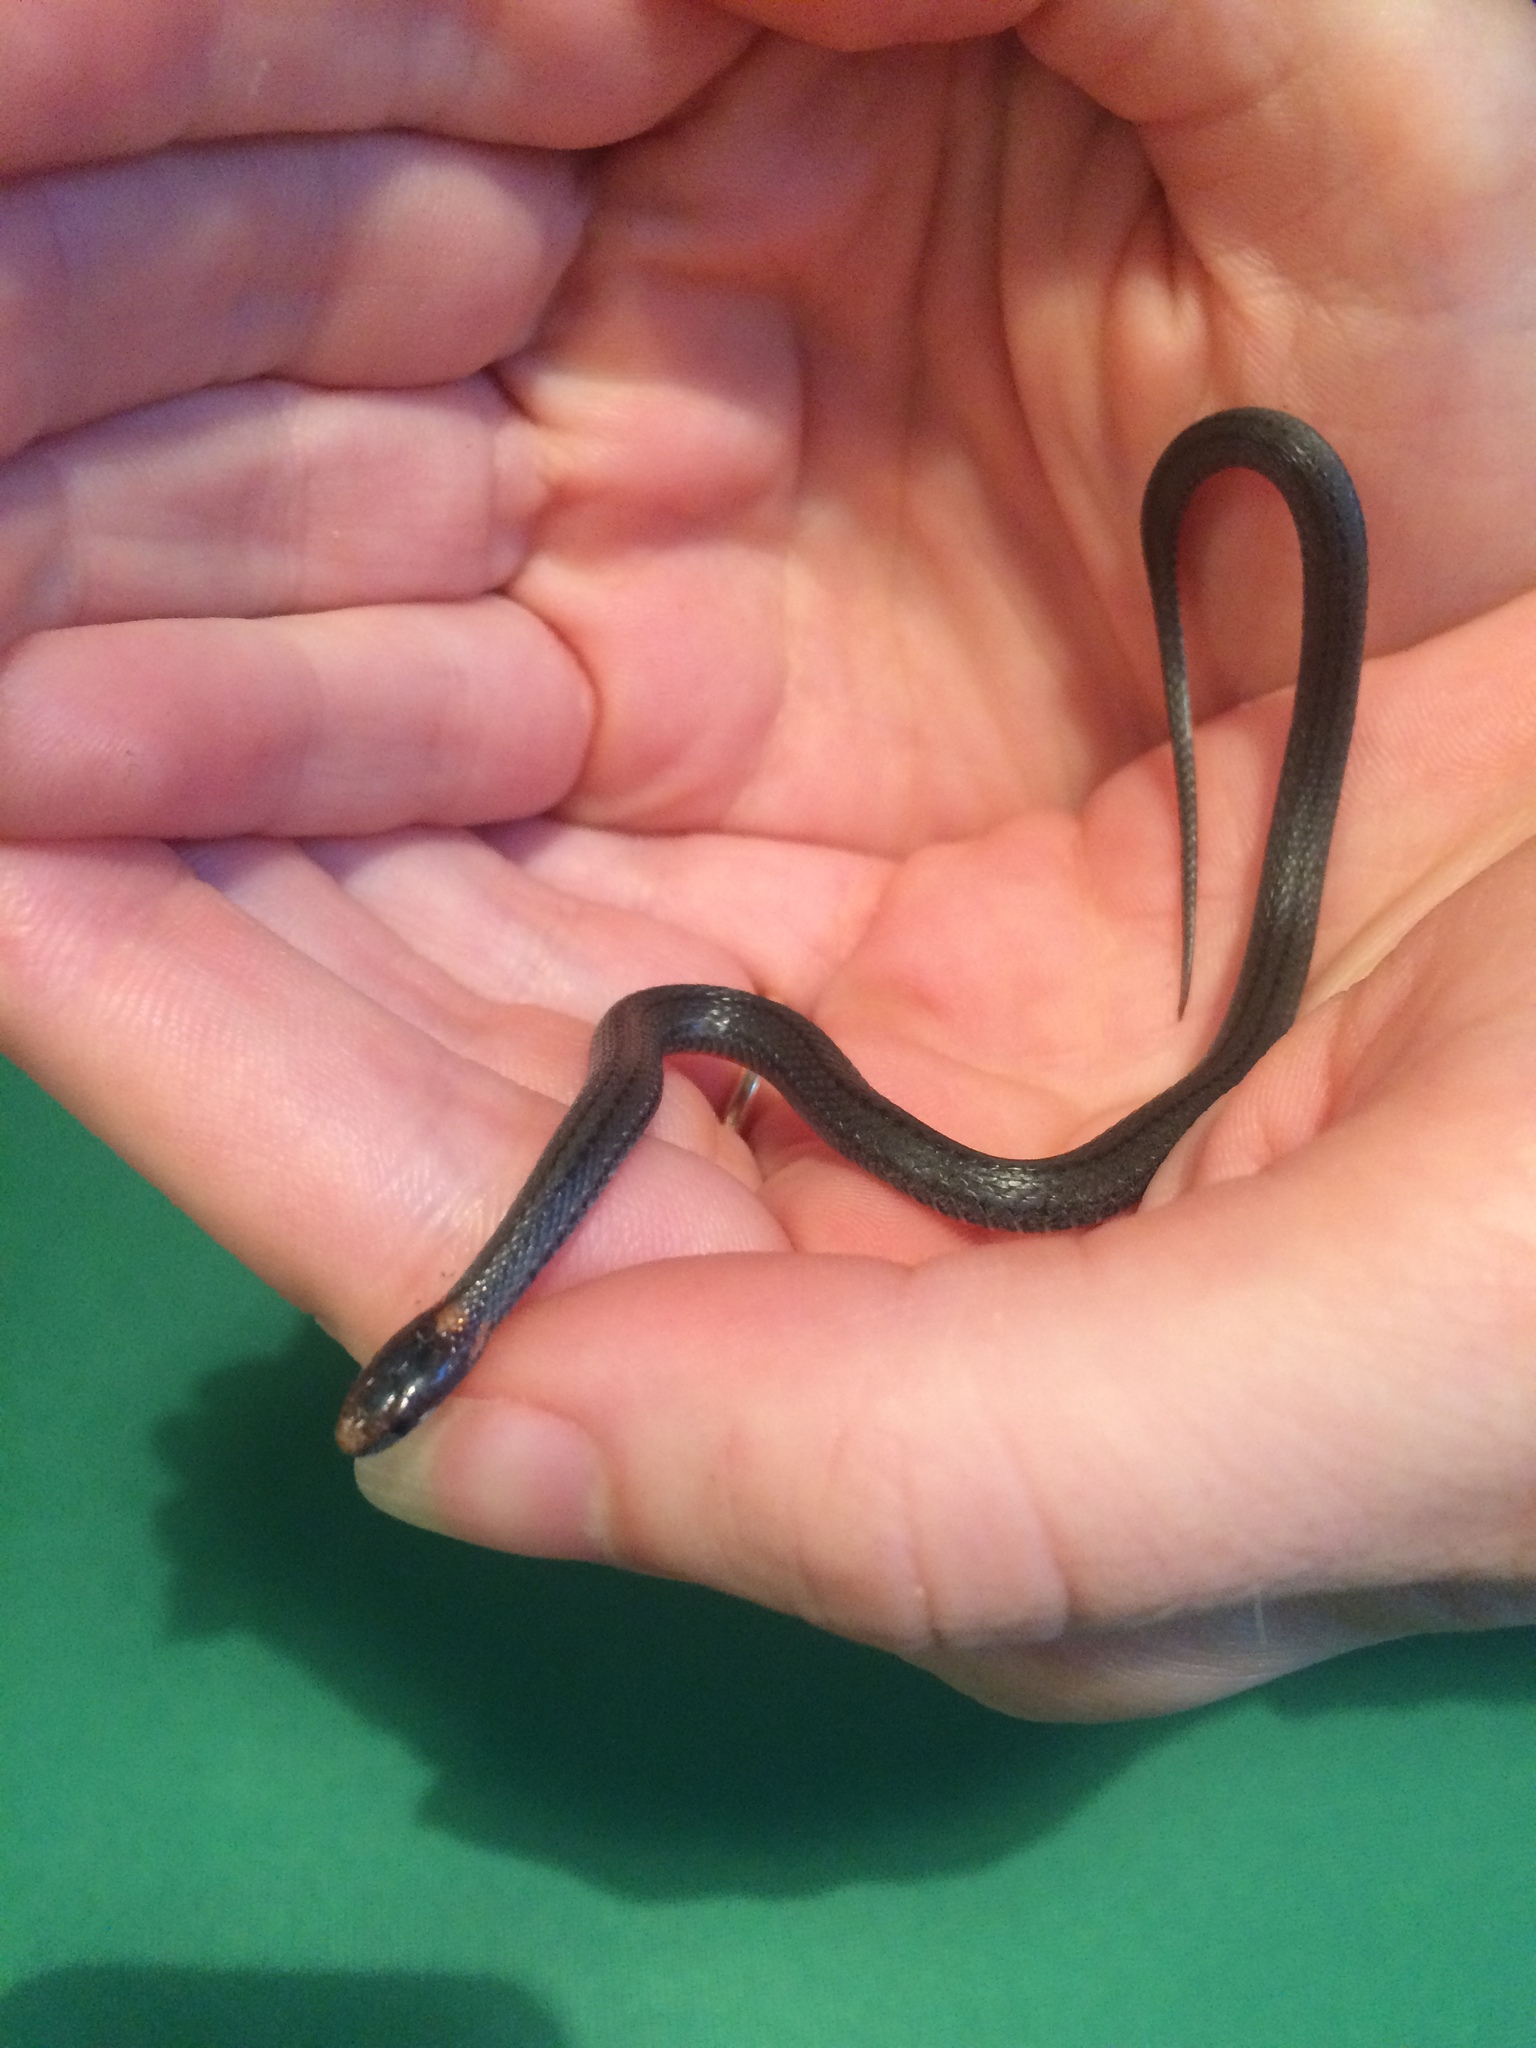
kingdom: Animalia
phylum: Chordata
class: Squamata
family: Colubridae
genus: Storeria
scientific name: Storeria occipitomaculata
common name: Redbelly snake
